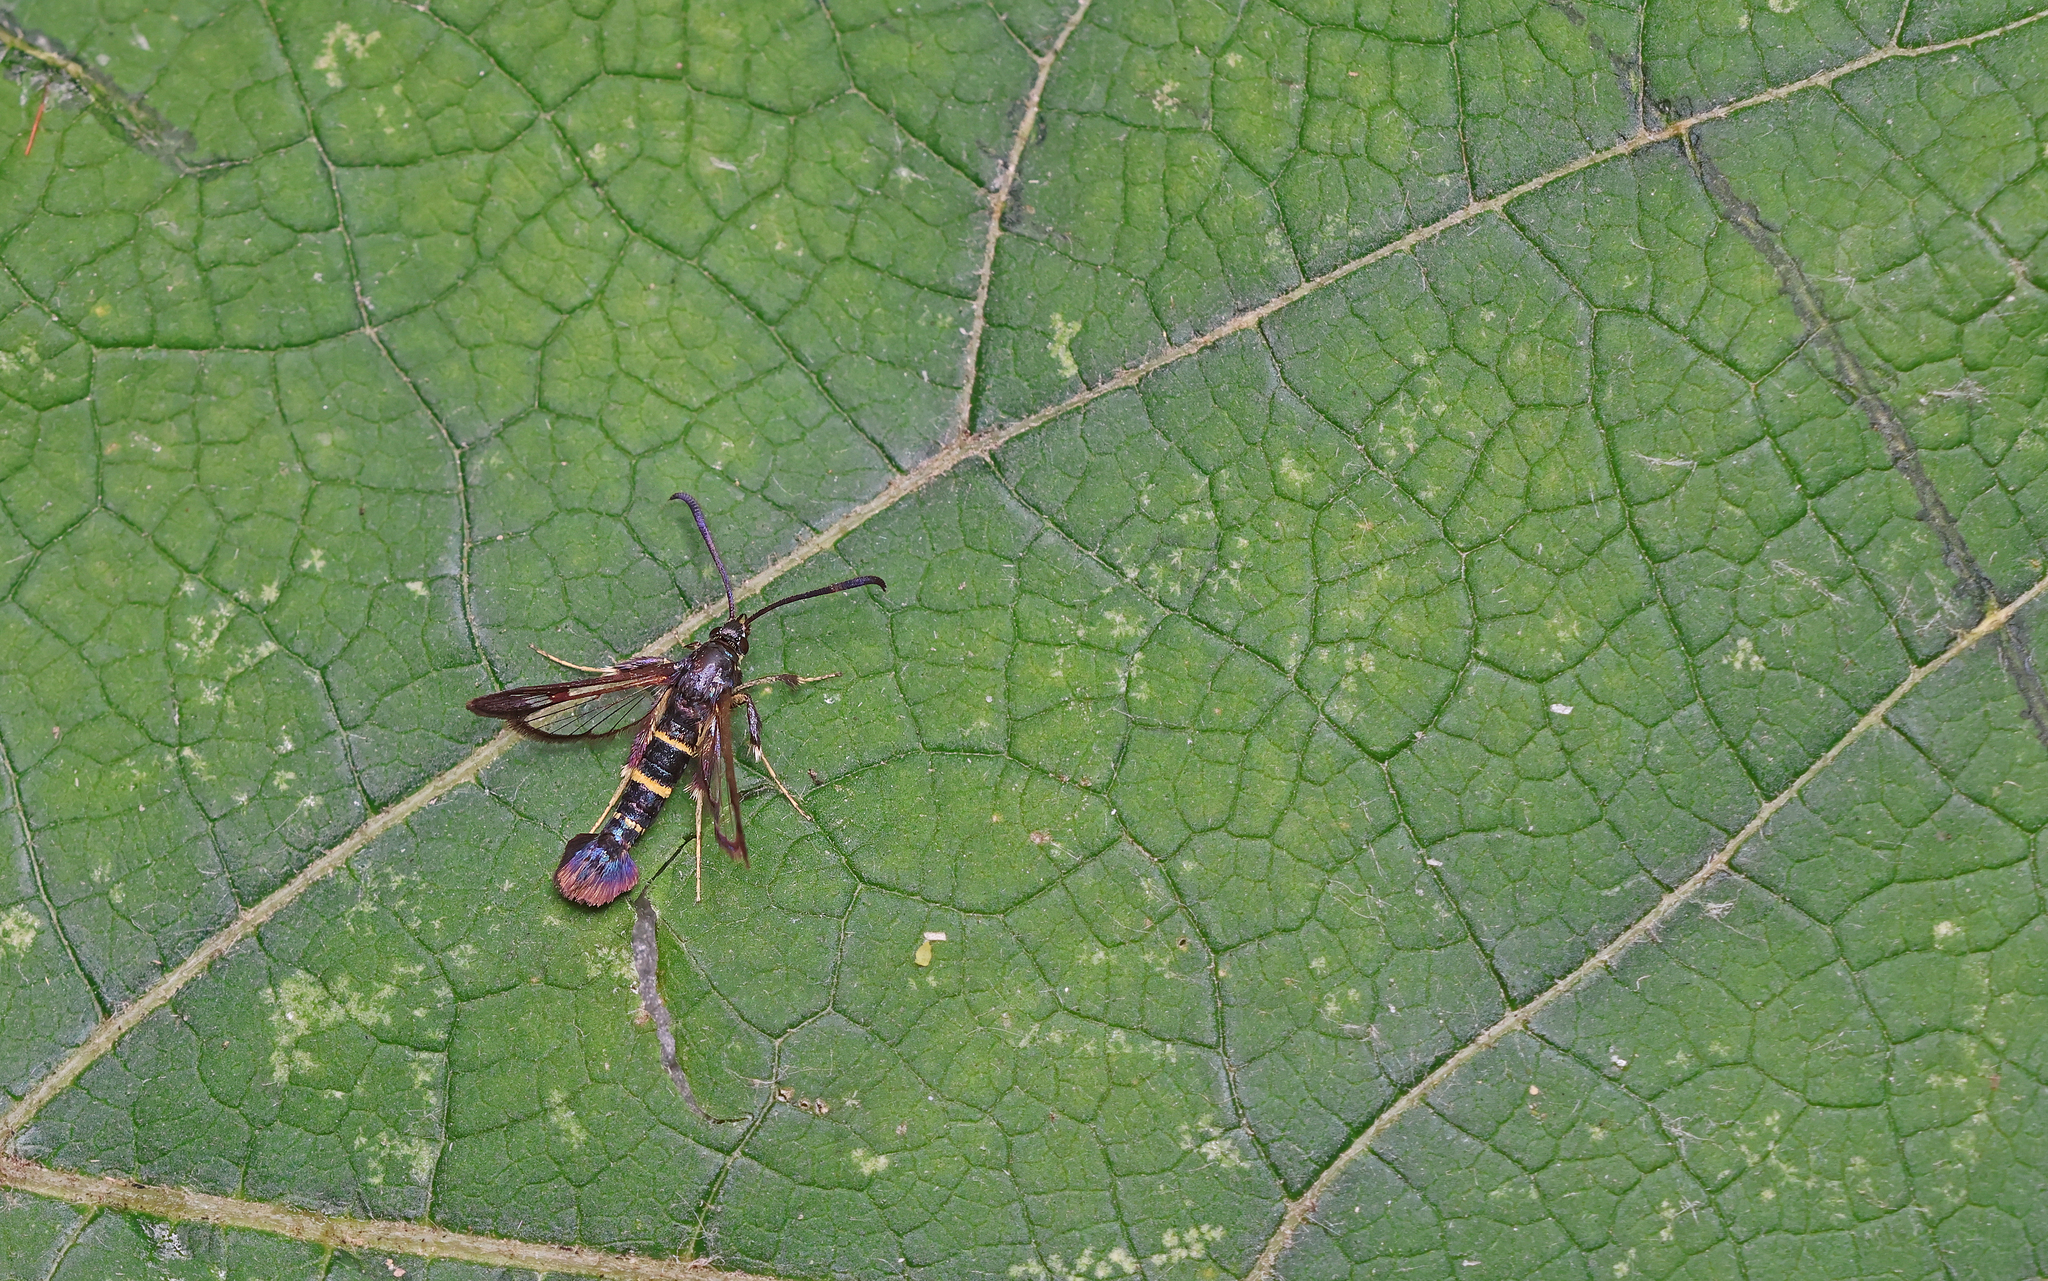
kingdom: Animalia
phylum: Arthropoda
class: Insecta
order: Lepidoptera
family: Sesiidae
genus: Synanthedon
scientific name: Synanthedon flaviventris
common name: Sallow clearwing
